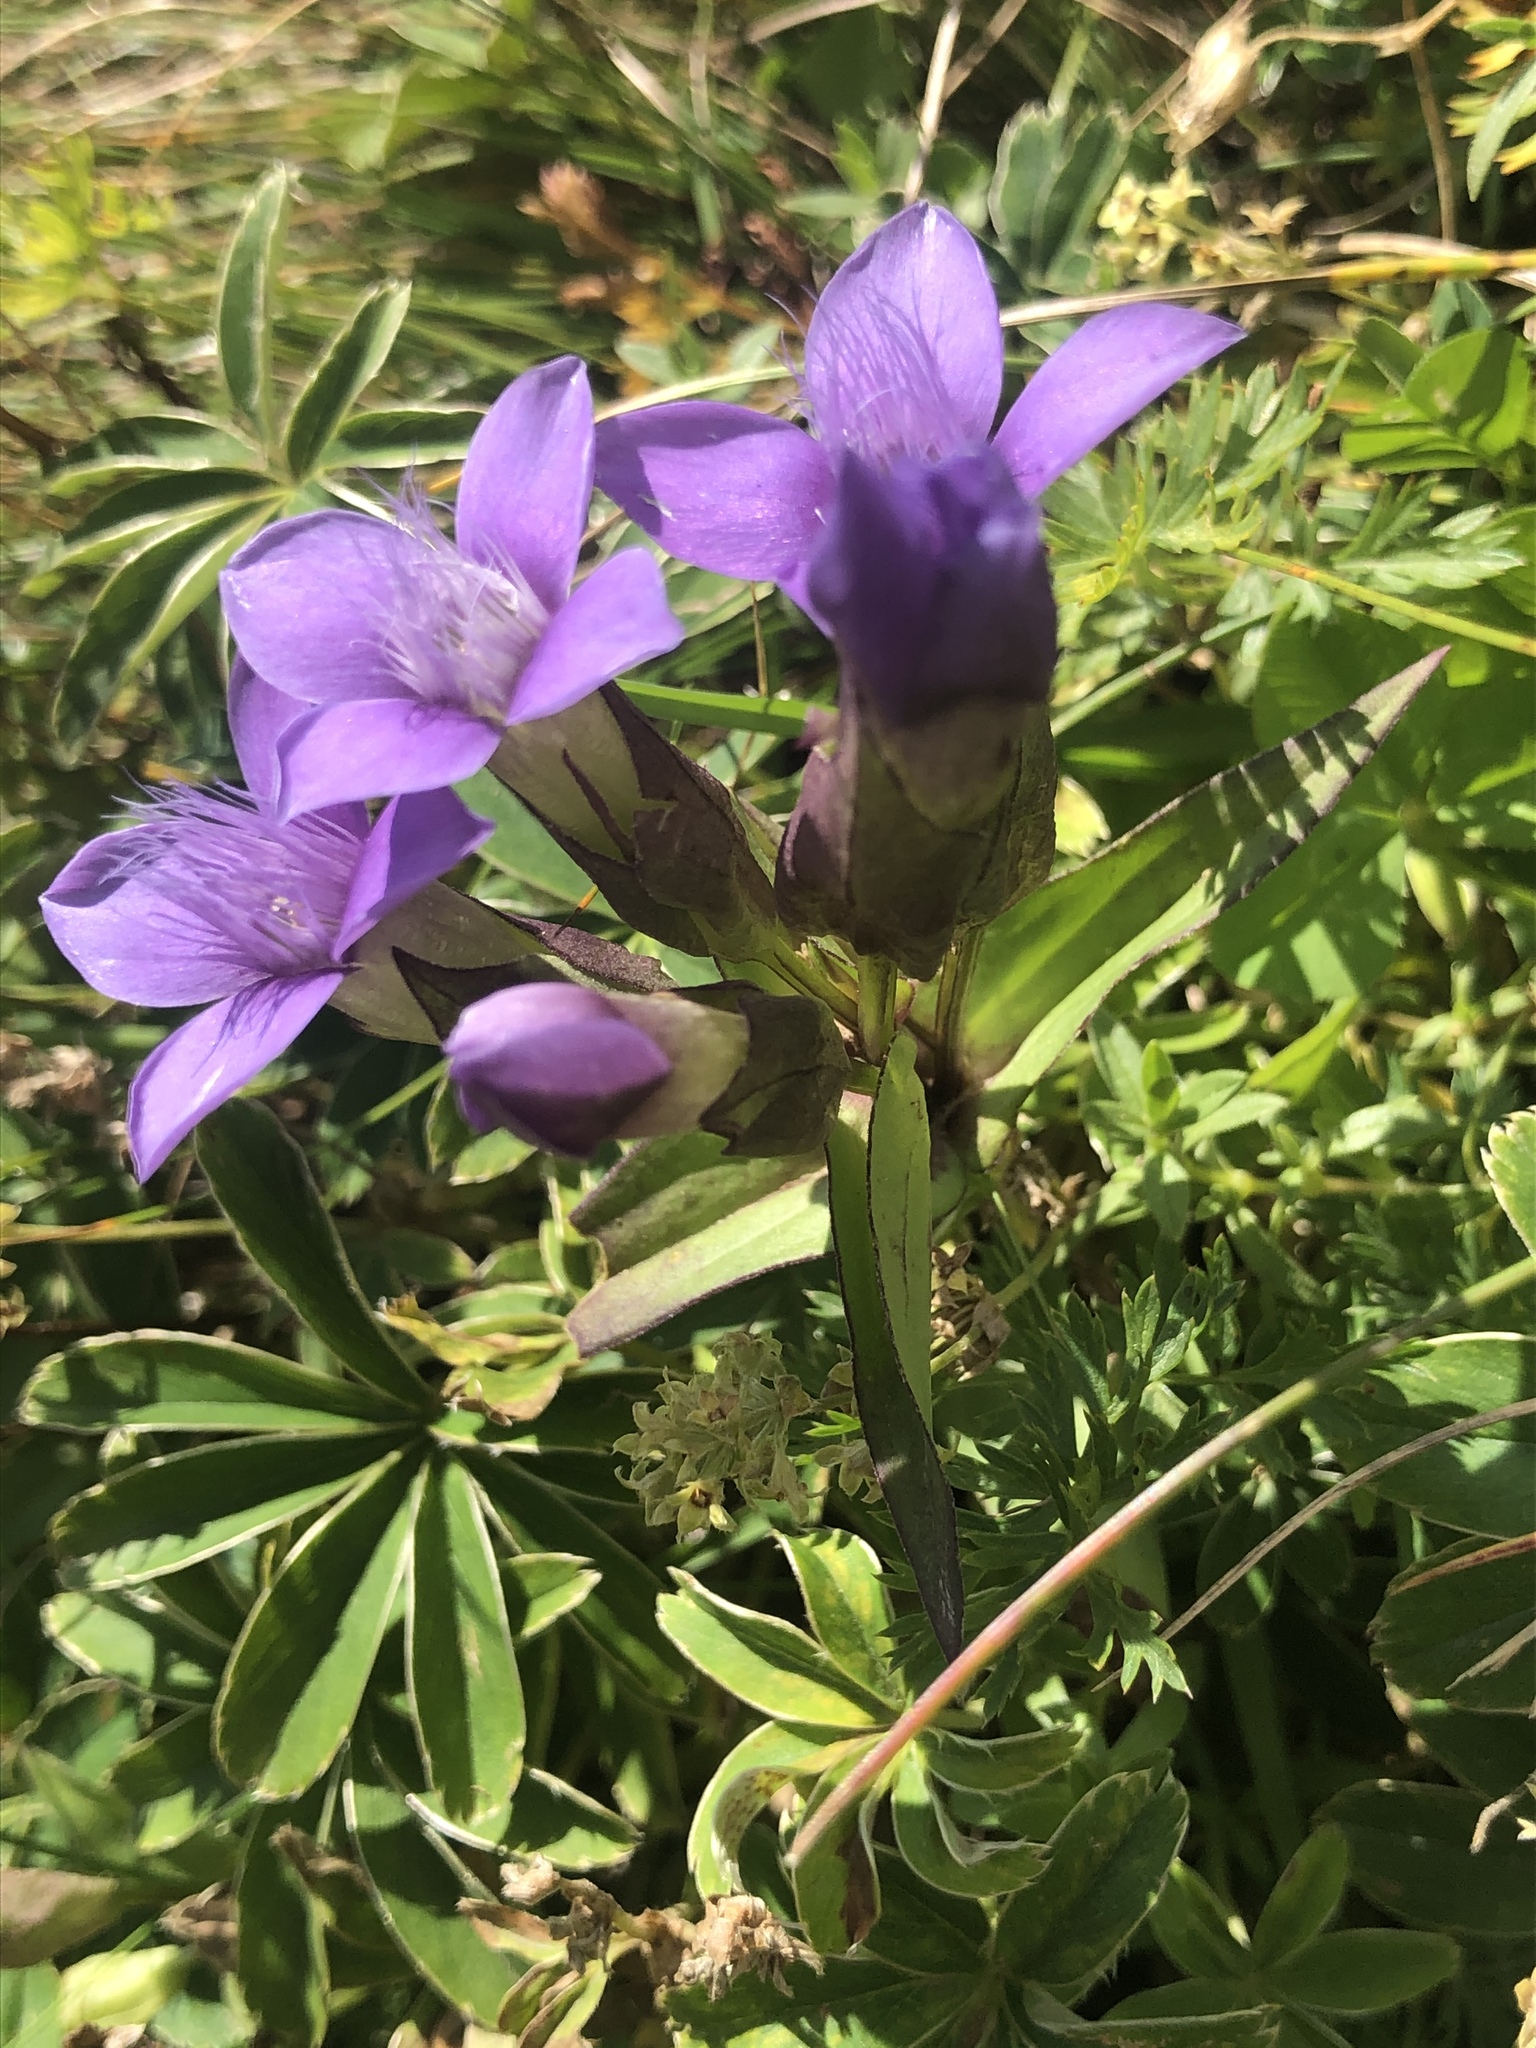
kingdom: Plantae
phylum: Tracheophyta
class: Magnoliopsida
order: Gentianales
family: Gentianaceae
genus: Gentianella
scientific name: Gentianella campestris
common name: Field gentian
